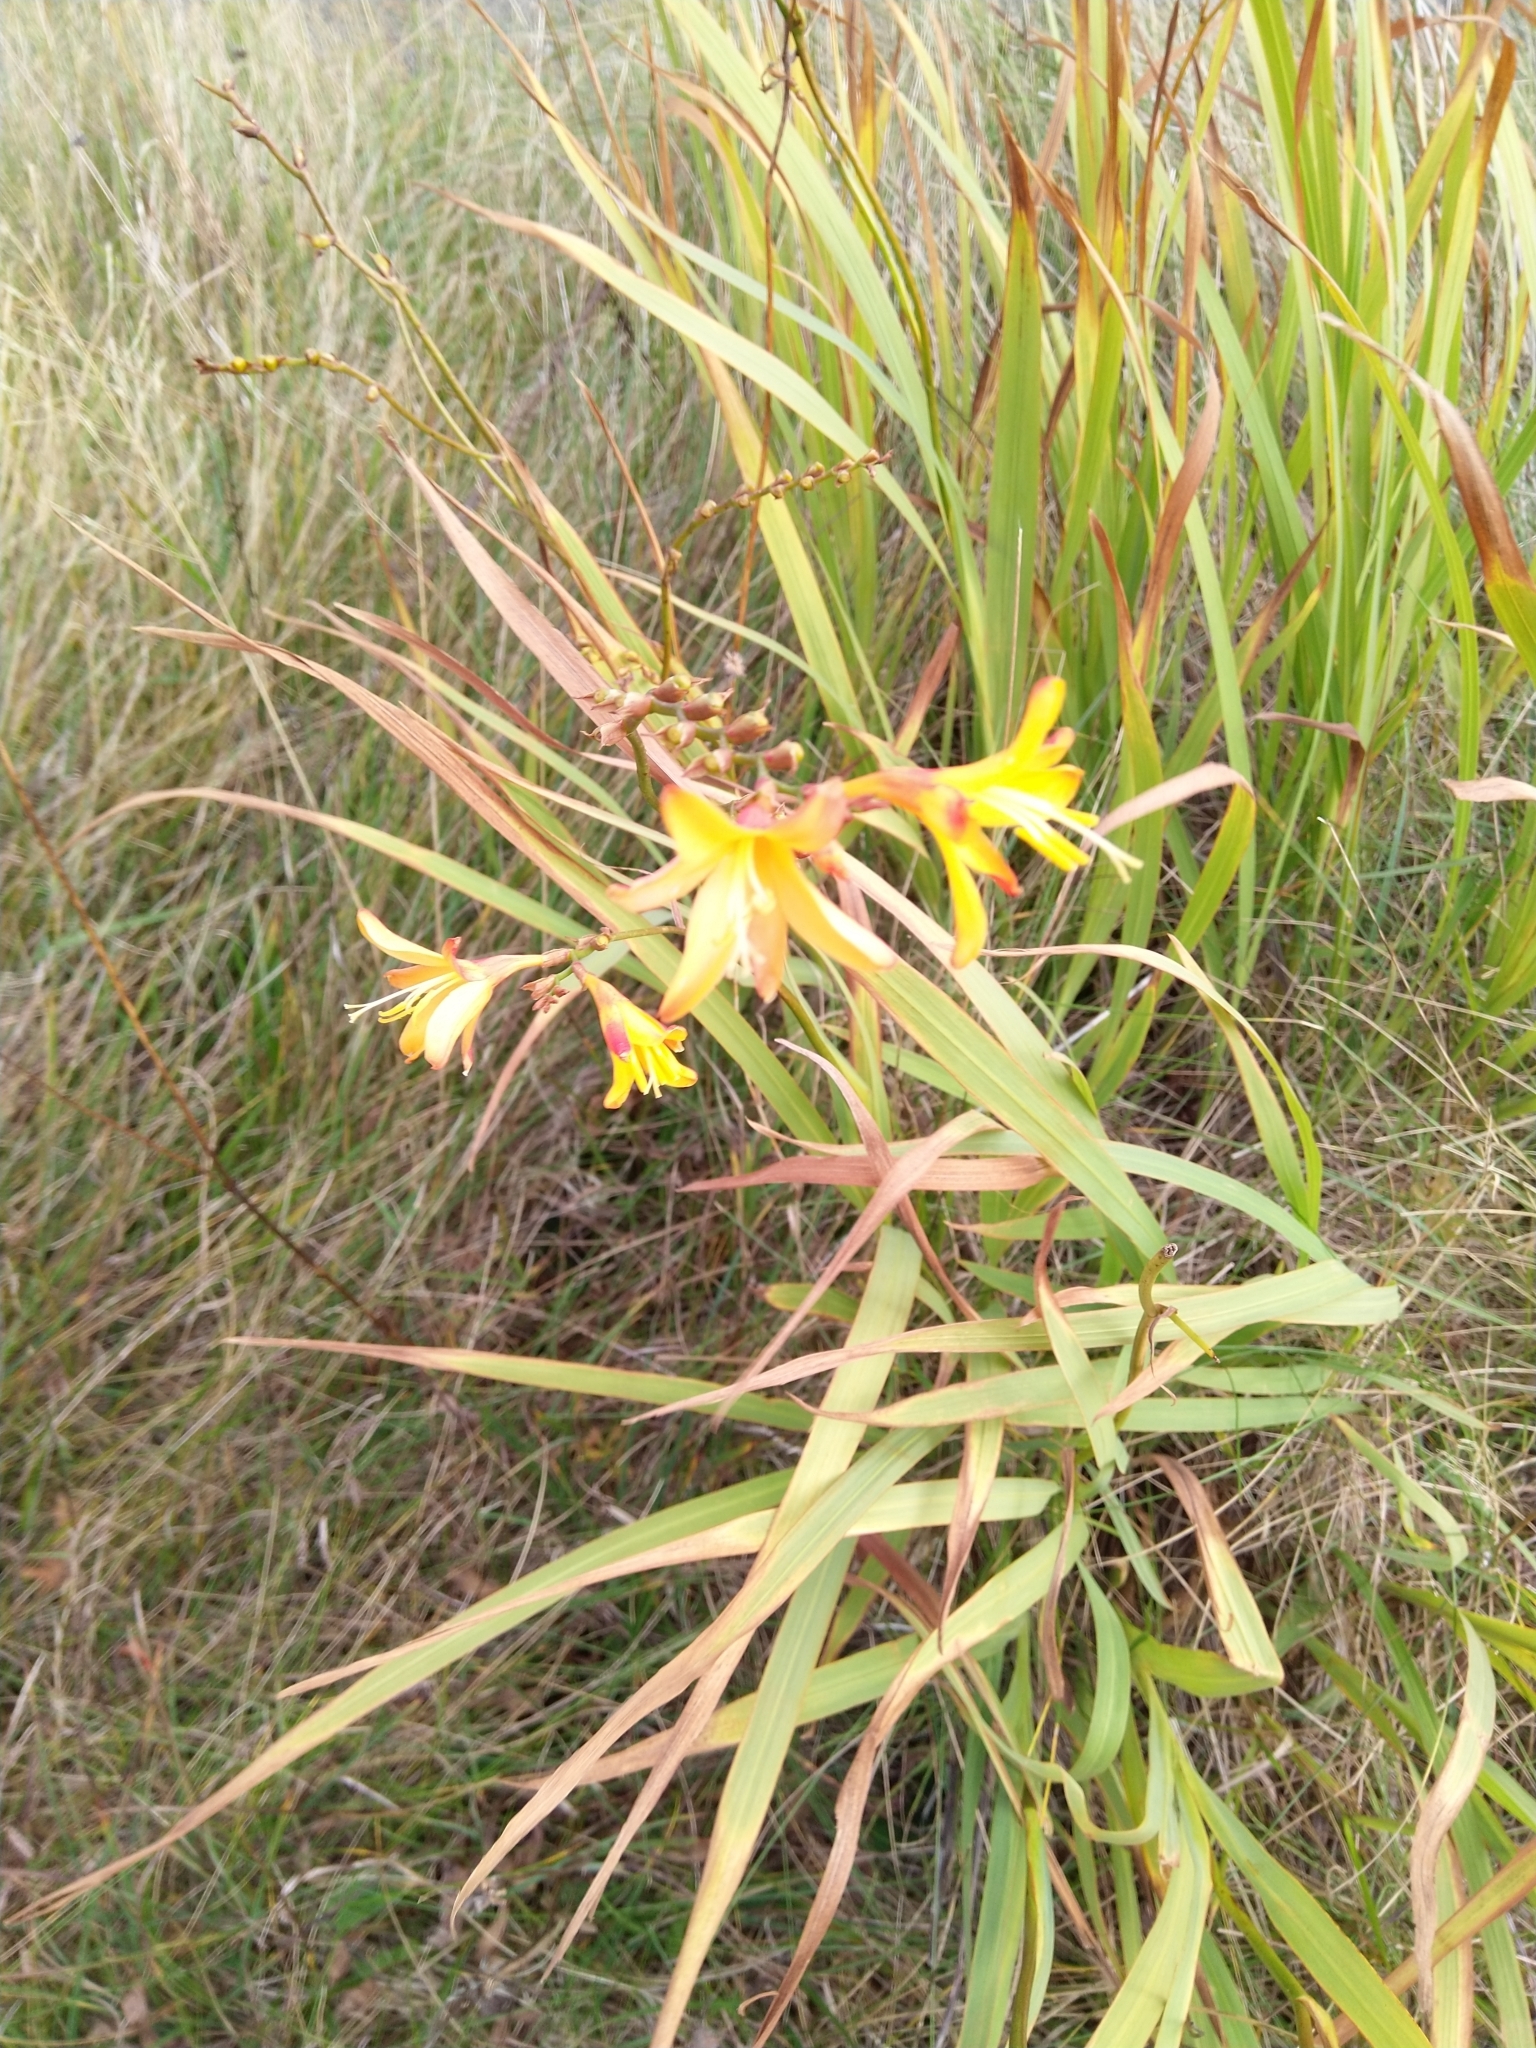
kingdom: Plantae
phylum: Tracheophyta
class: Liliopsida
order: Asparagales
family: Iridaceae
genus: Crocosmia
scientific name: Crocosmia crocosmiiflora
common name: Montbretia
